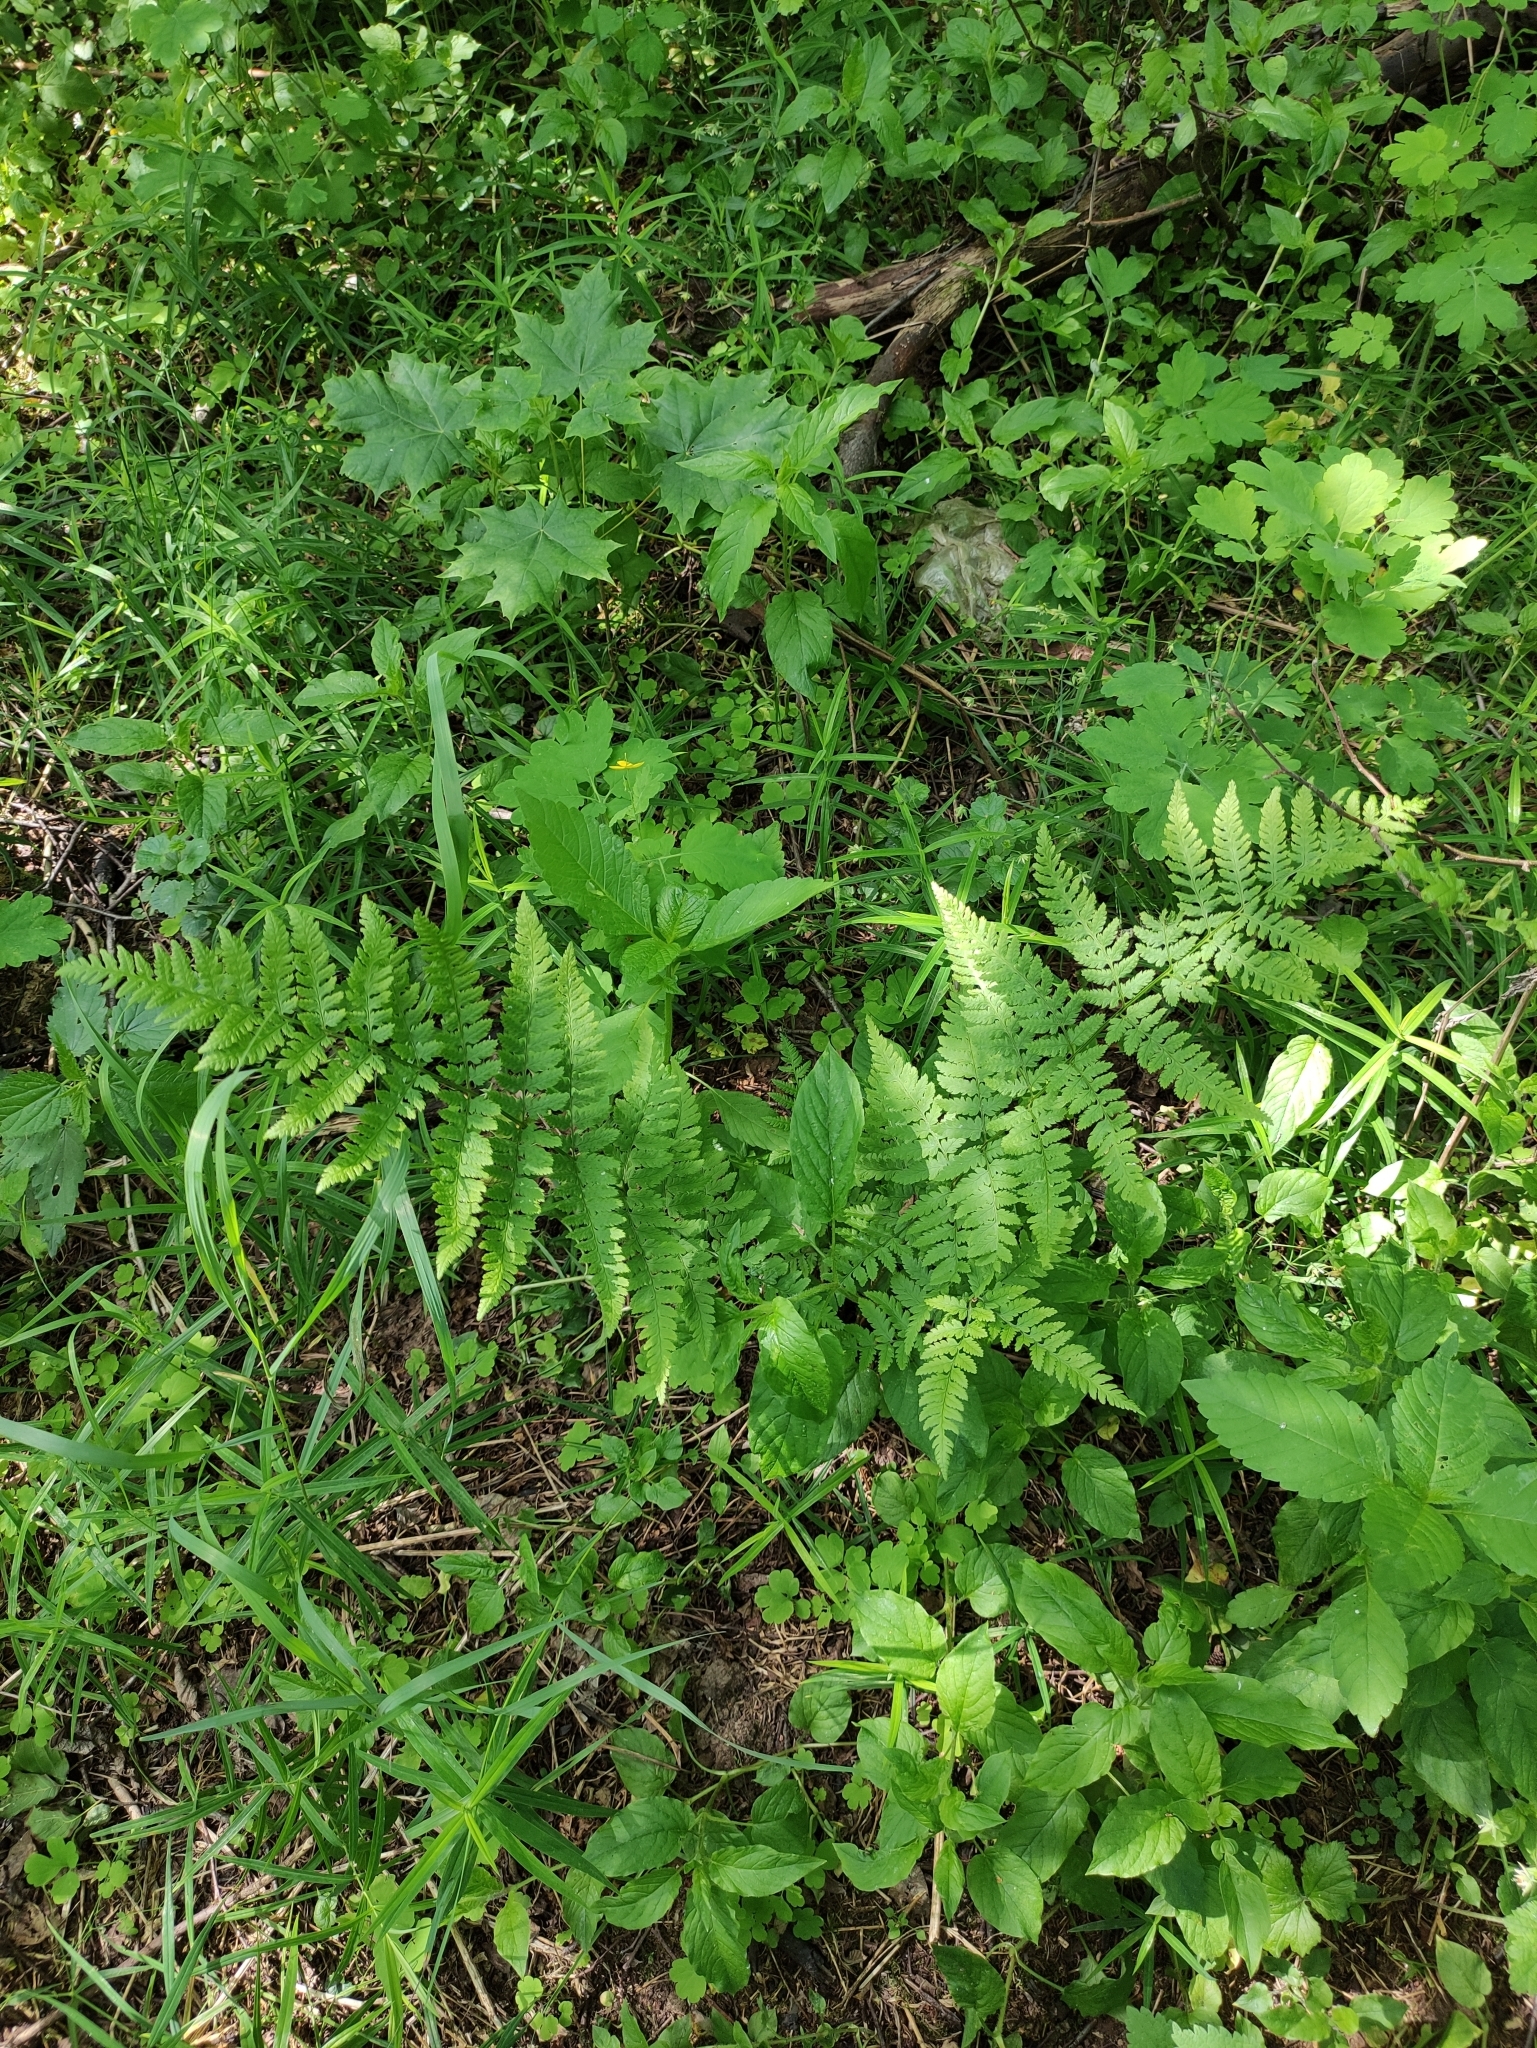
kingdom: Plantae
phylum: Tracheophyta
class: Polypodiopsida
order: Polypodiales
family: Dryopteridaceae
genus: Dryopteris
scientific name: Dryopteris carthusiana
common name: Narrow buckler-fern
